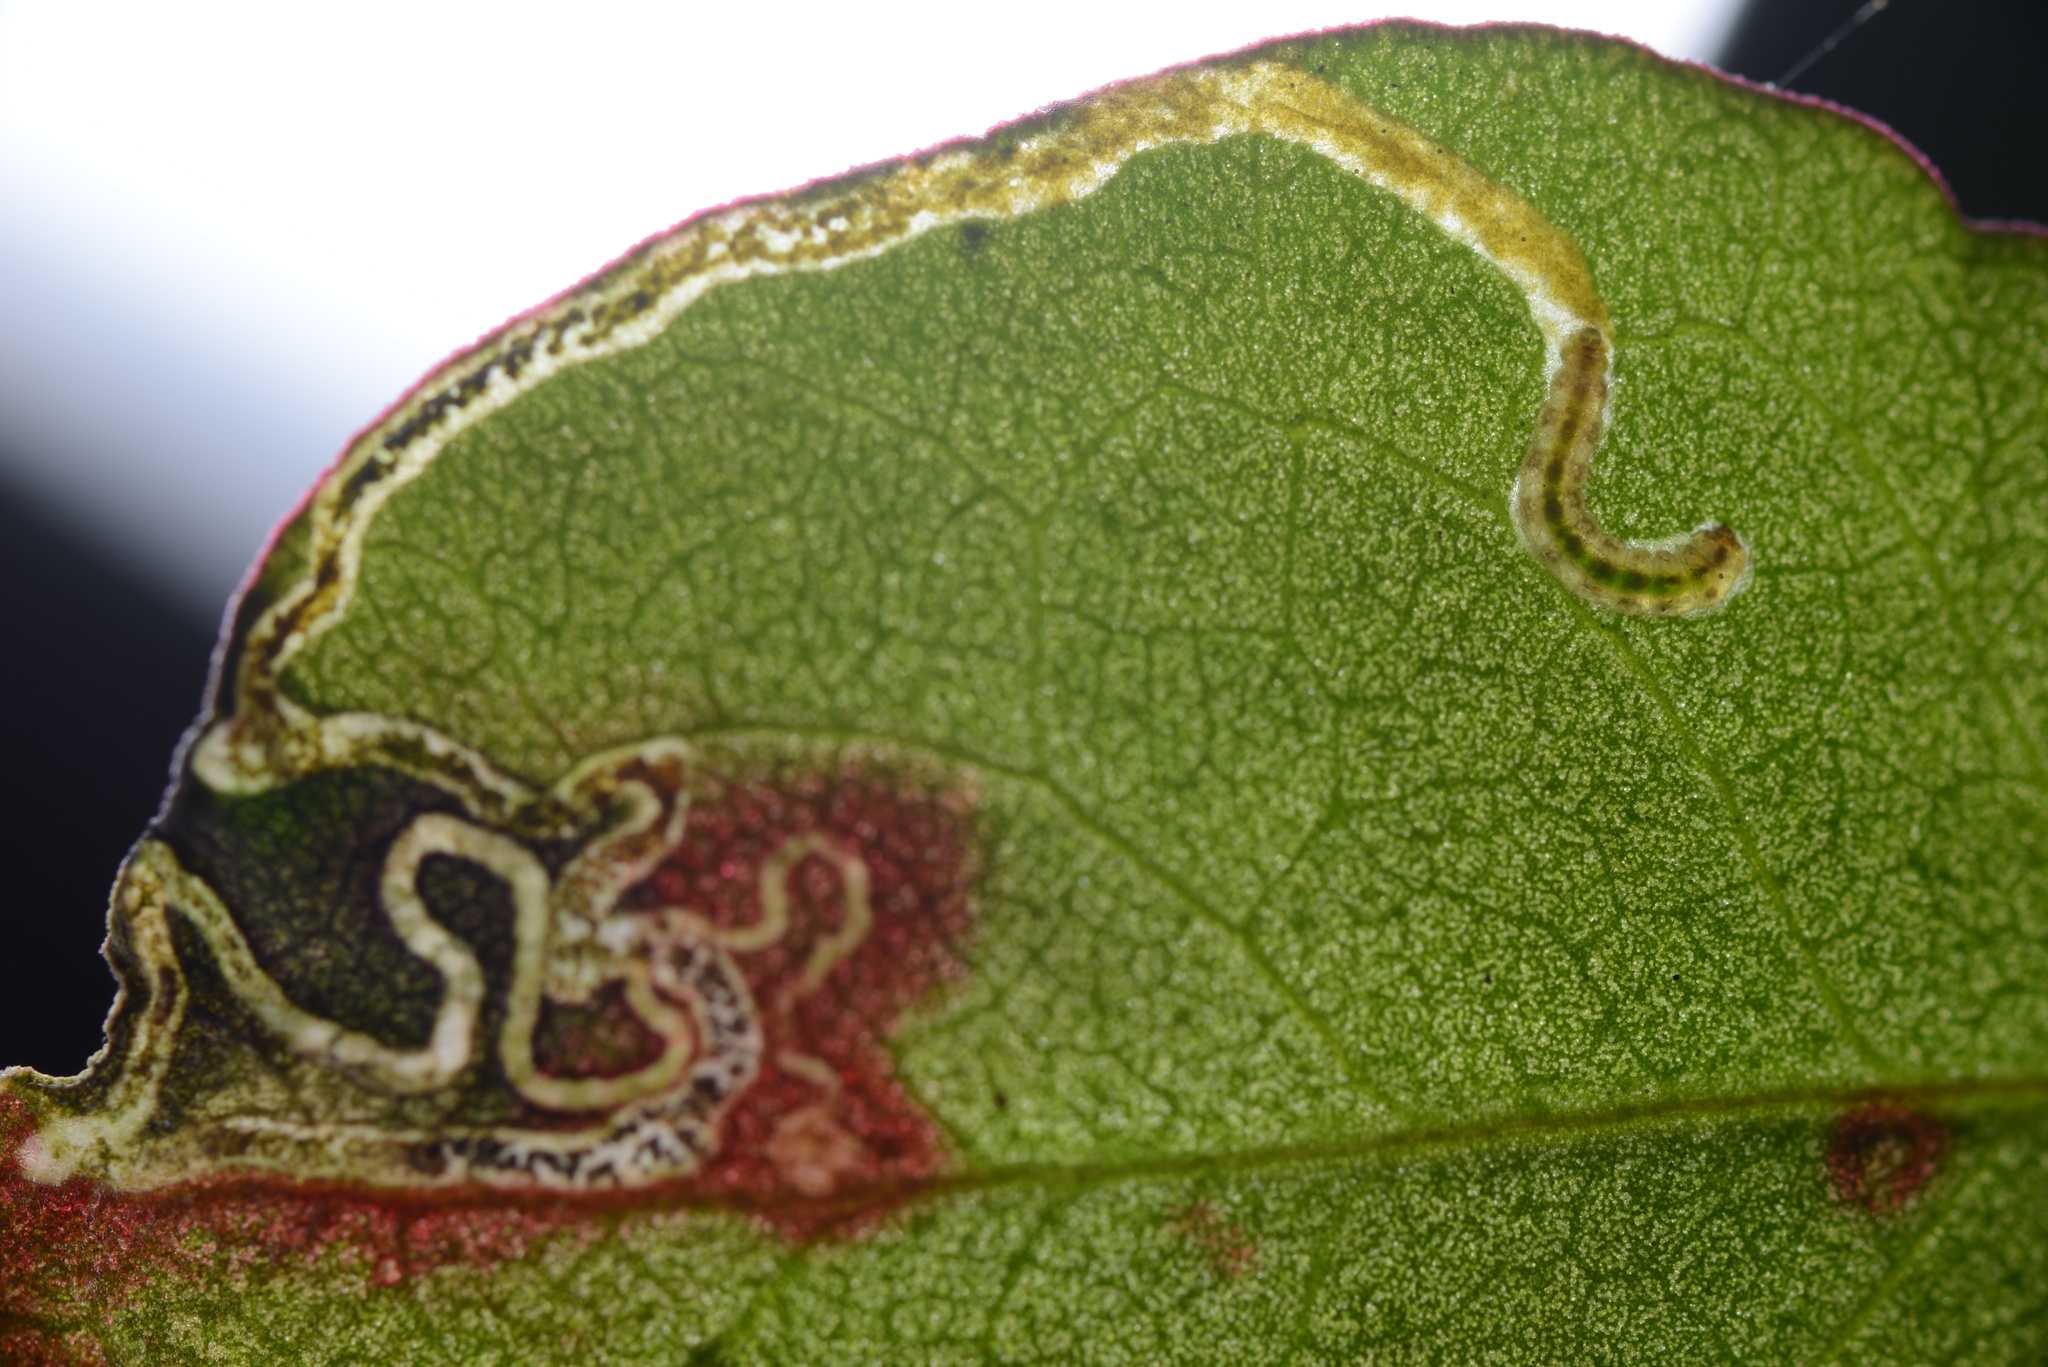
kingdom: Animalia
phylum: Arthropoda
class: Insecta
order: Lepidoptera
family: Momphidae
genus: Zapyrastra
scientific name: Zapyrastra calliphana
